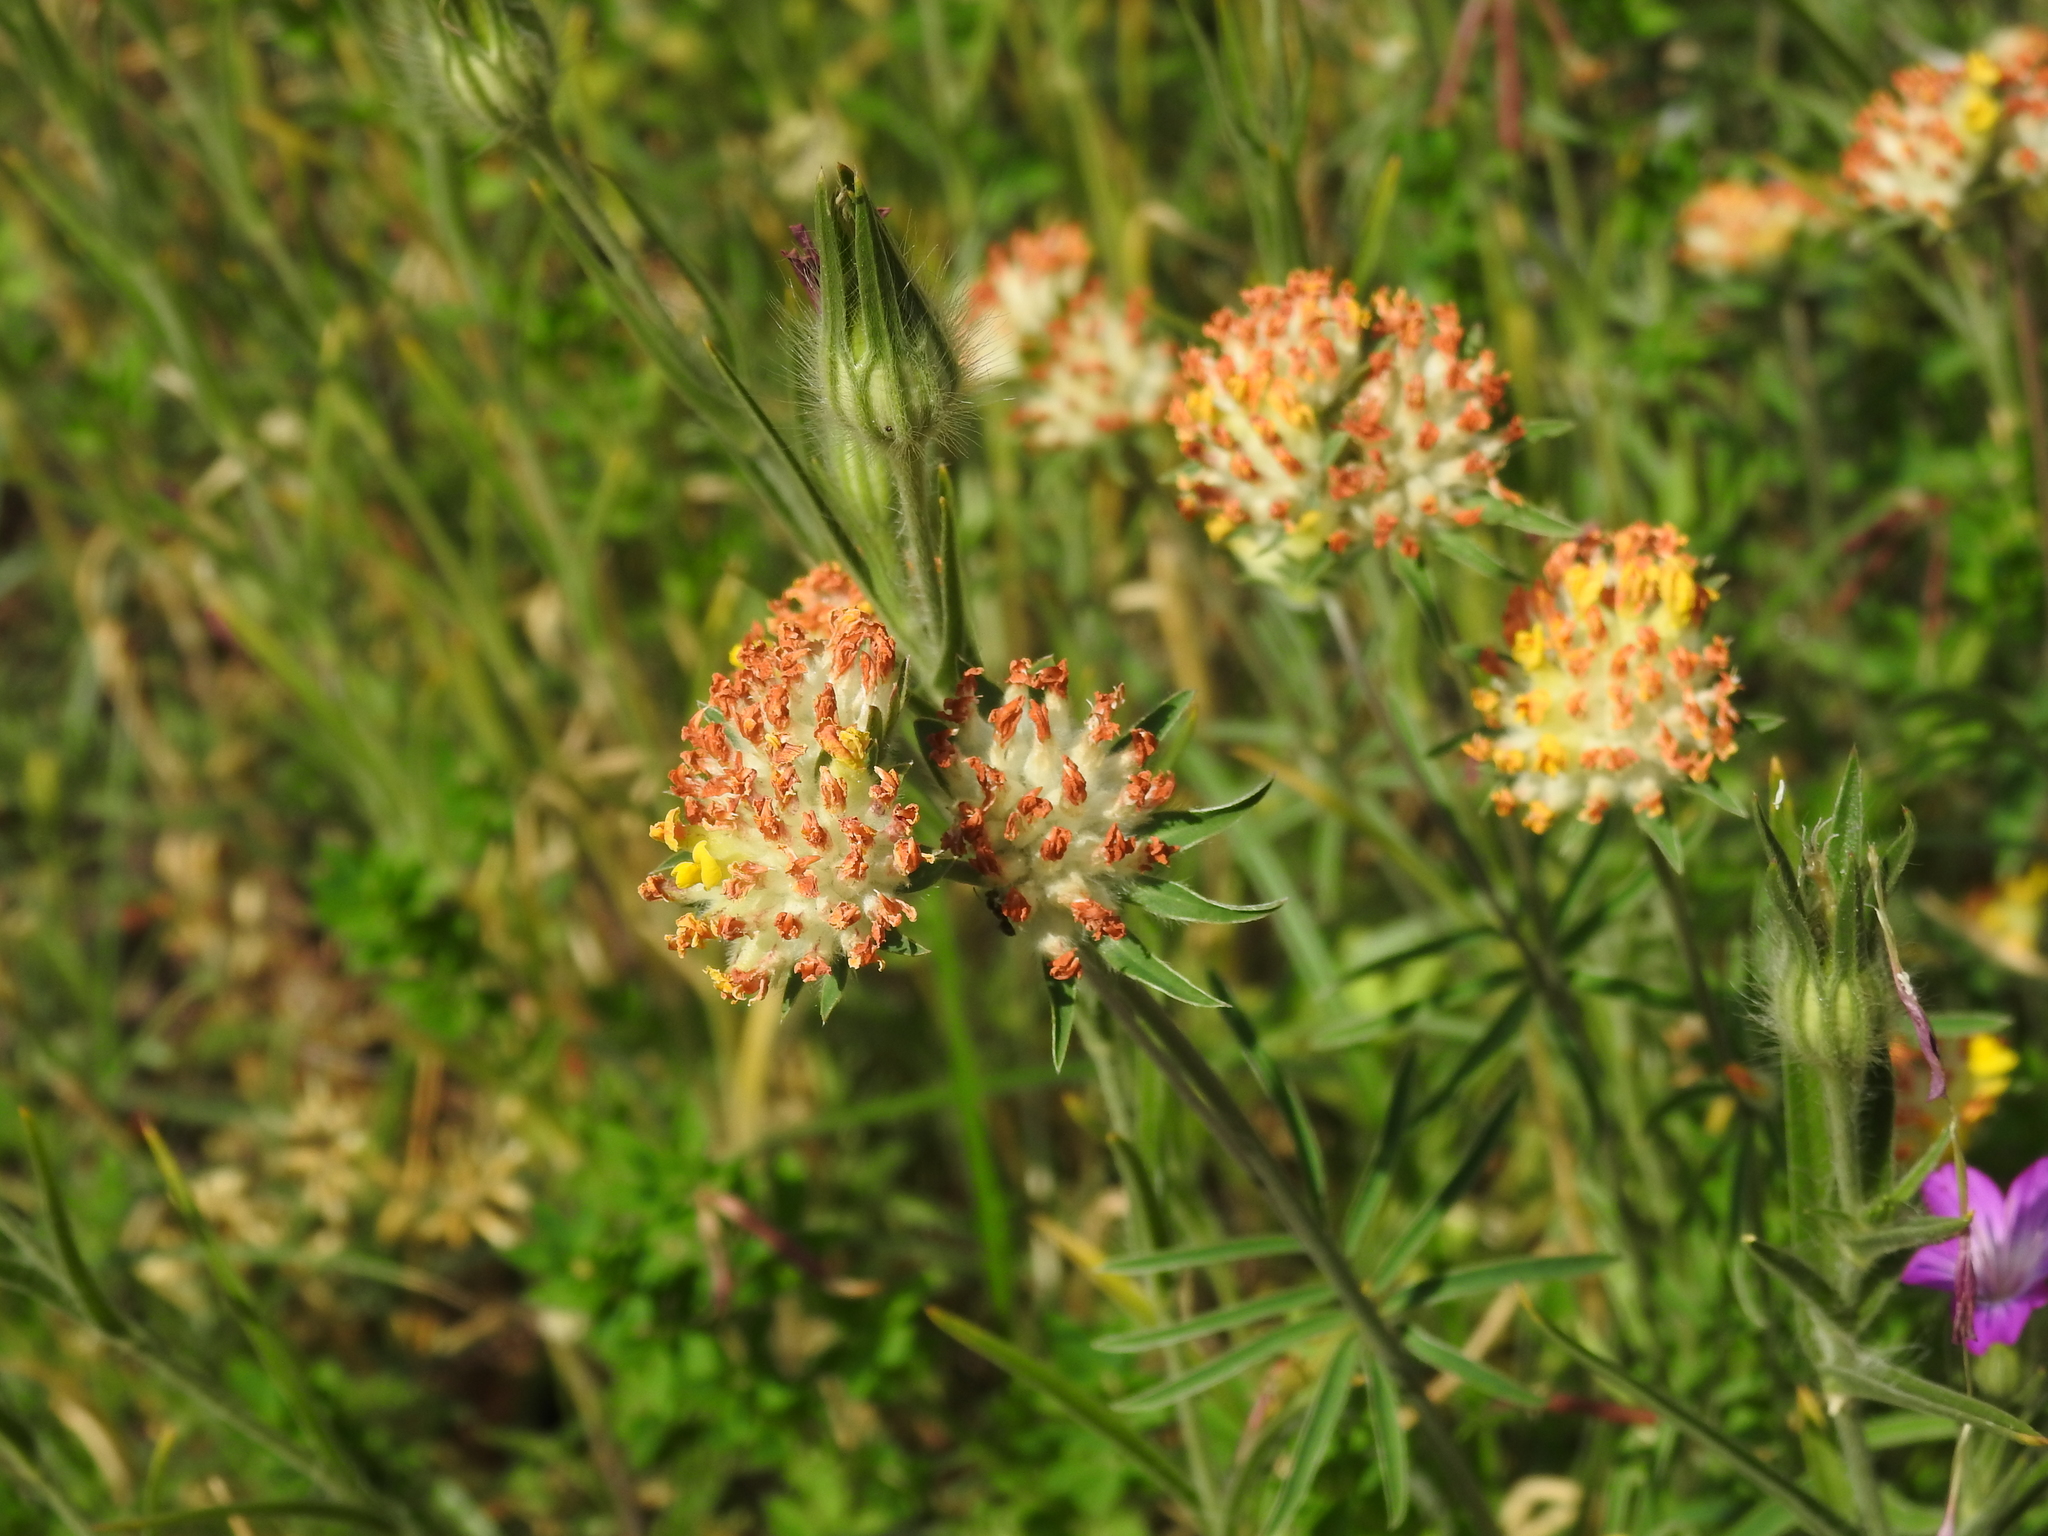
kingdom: Plantae
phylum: Tracheophyta
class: Magnoliopsida
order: Fabales
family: Fabaceae
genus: Anthyllis
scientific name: Anthyllis vulneraria
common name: Kidney vetch
